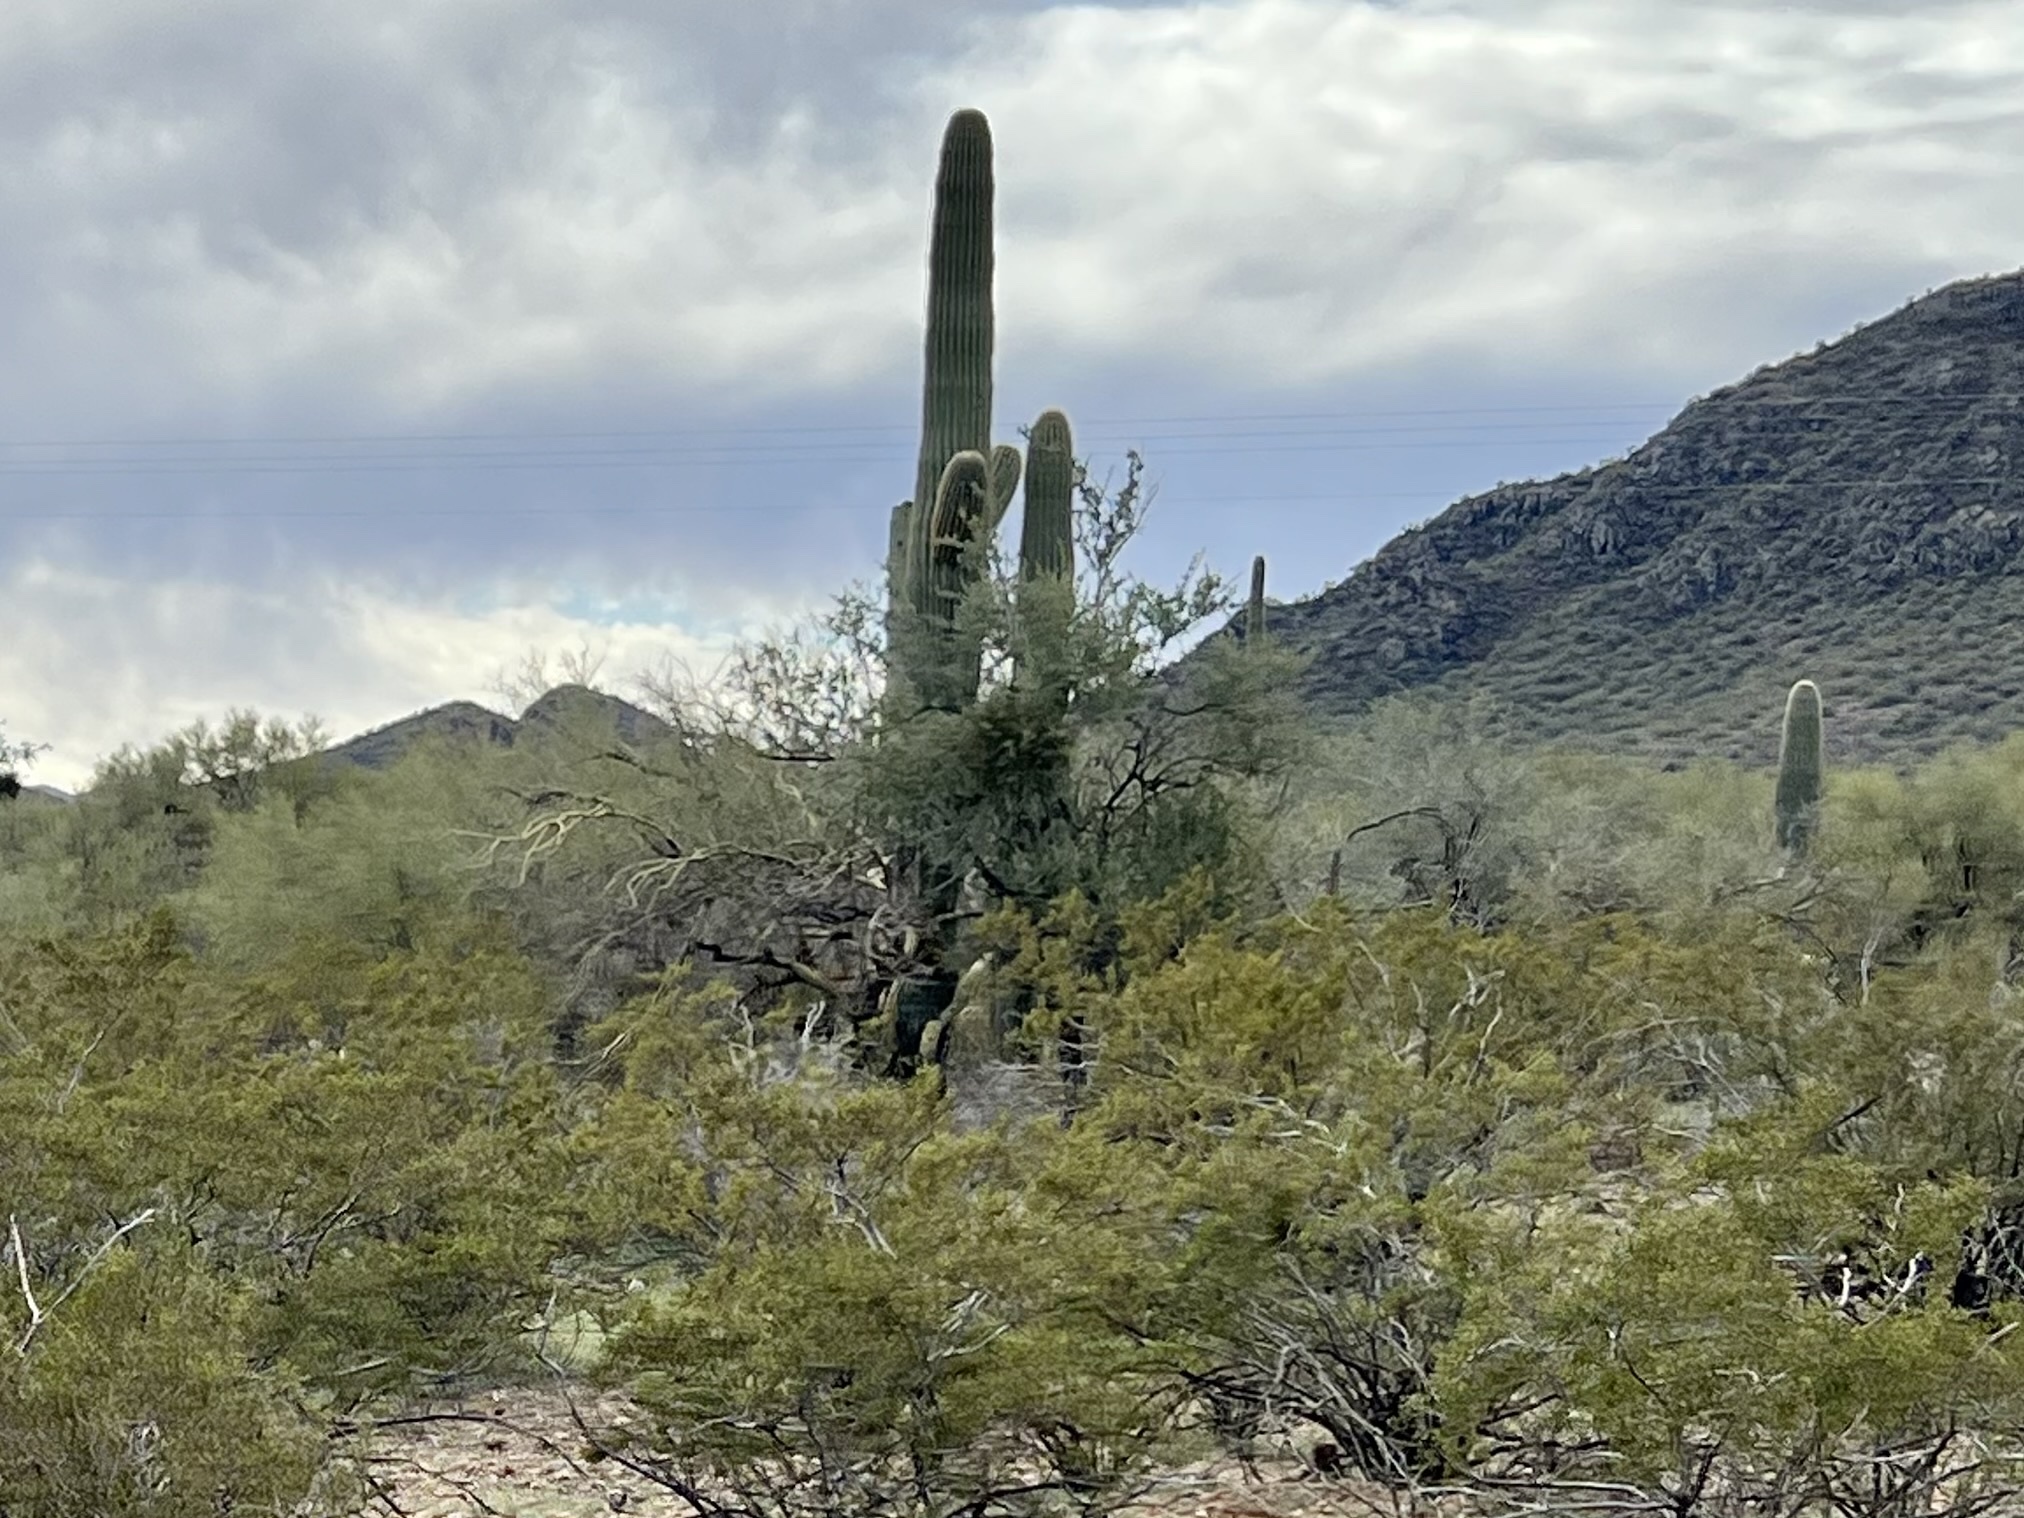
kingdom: Plantae
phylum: Tracheophyta
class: Magnoliopsida
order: Caryophyllales
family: Cactaceae
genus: Carnegiea
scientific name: Carnegiea gigantea
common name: Saguaro
